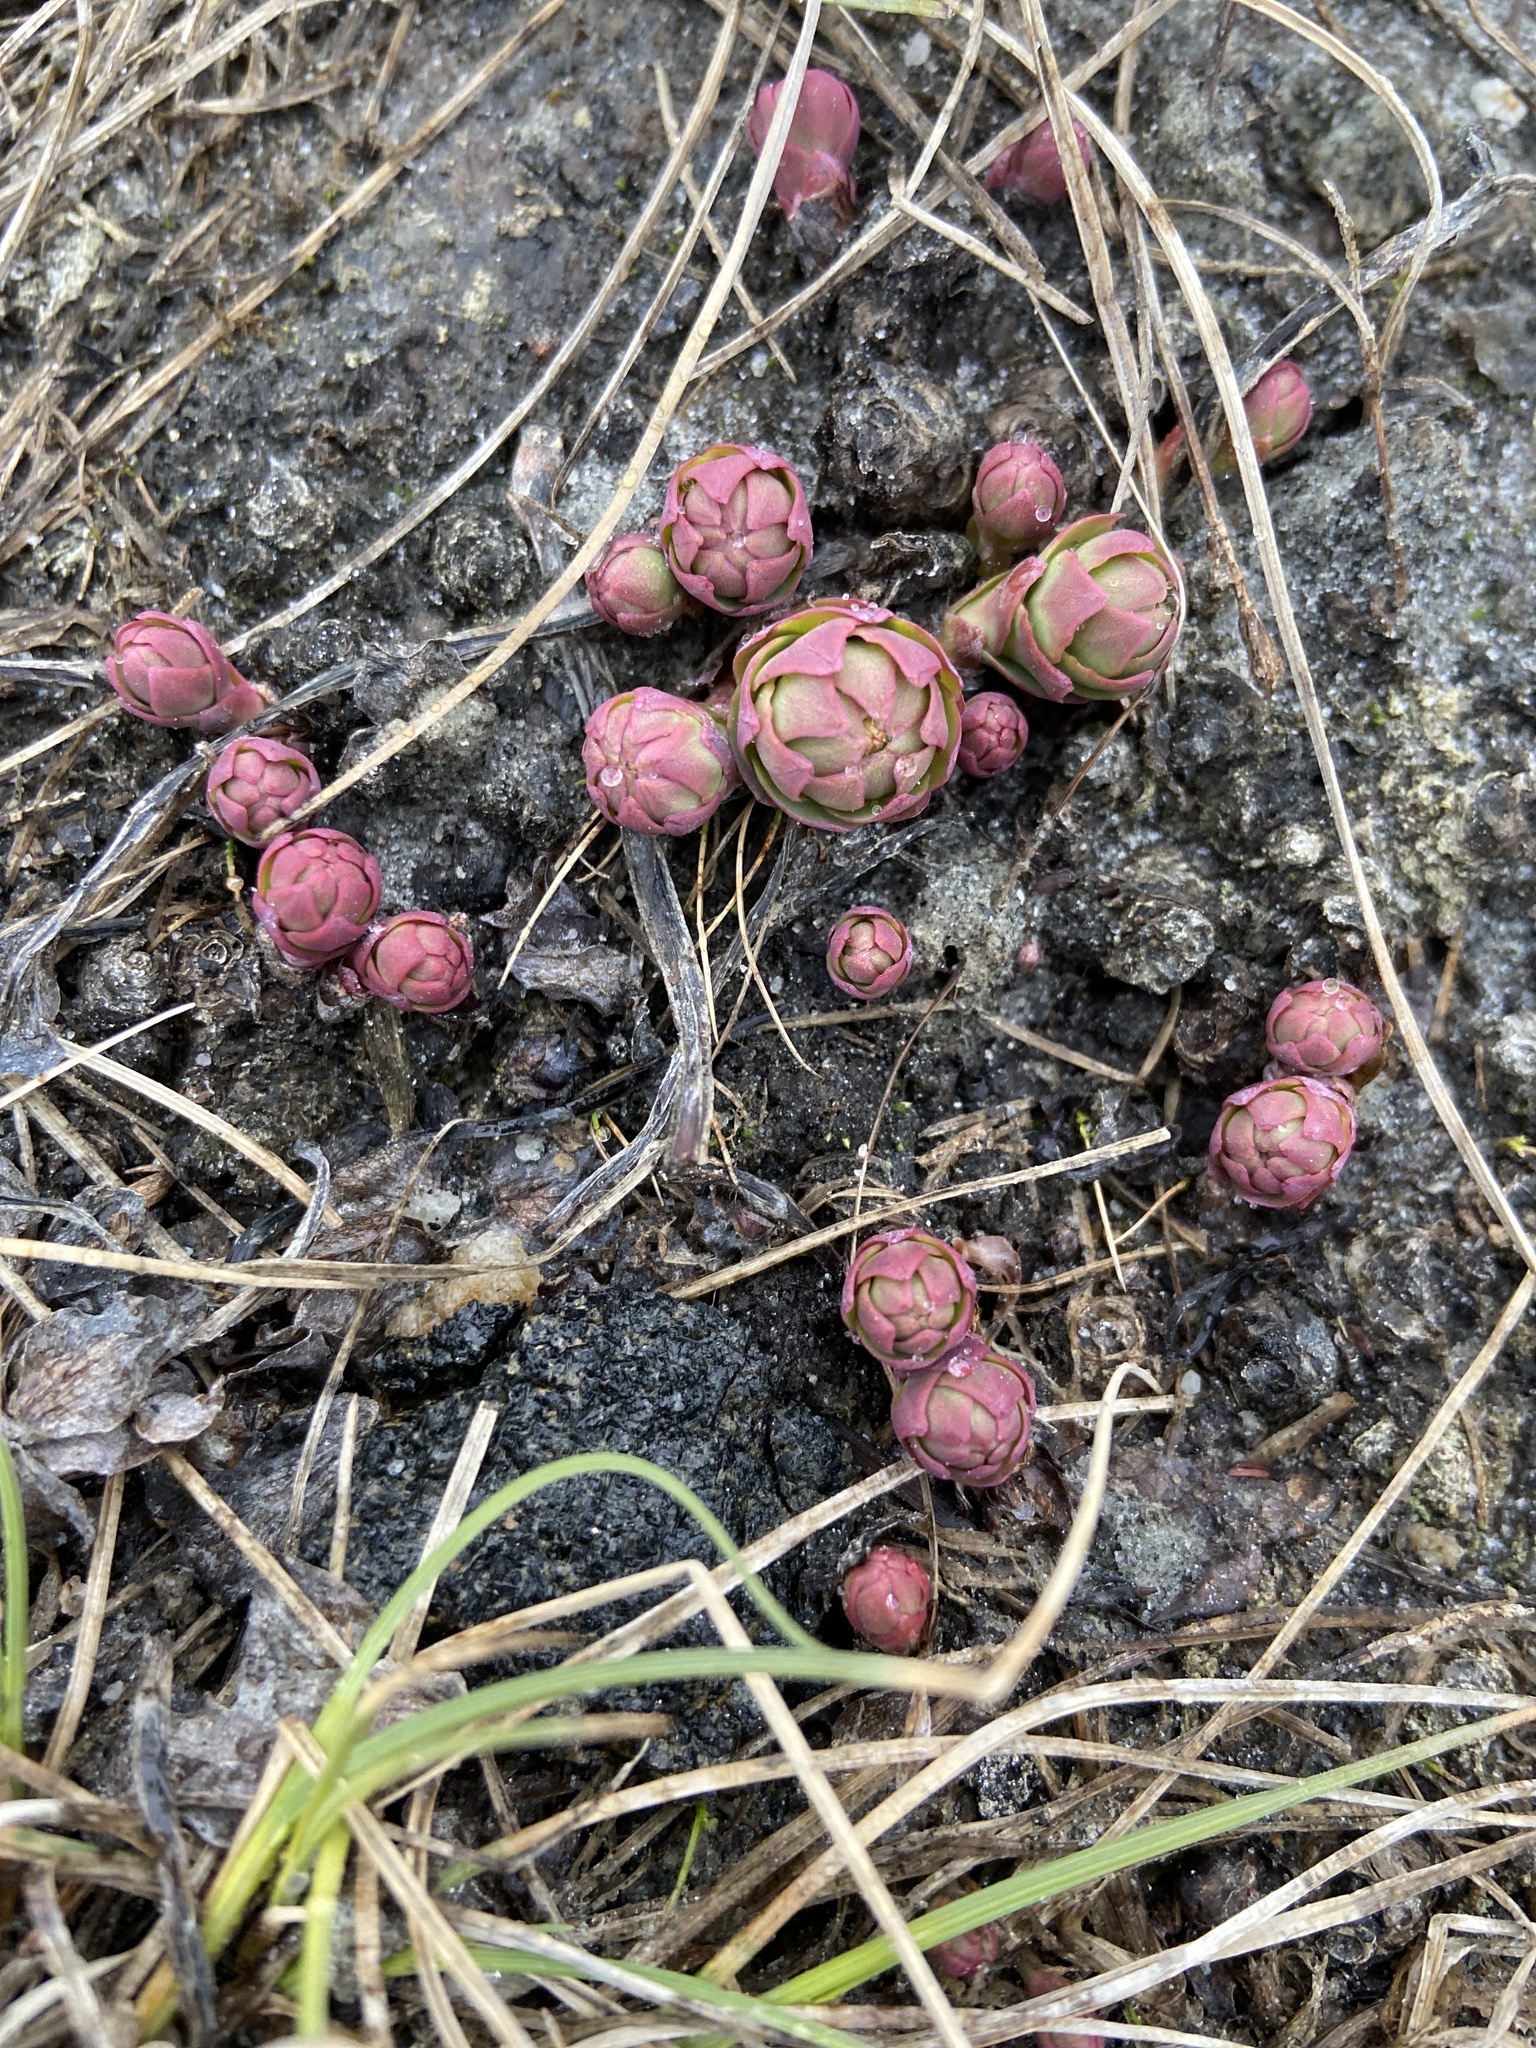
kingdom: Plantae
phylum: Tracheophyta
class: Magnoliopsida
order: Saxifragales
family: Crassulaceae
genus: Rhodiola
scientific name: Rhodiola rosea
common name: Roseroot
